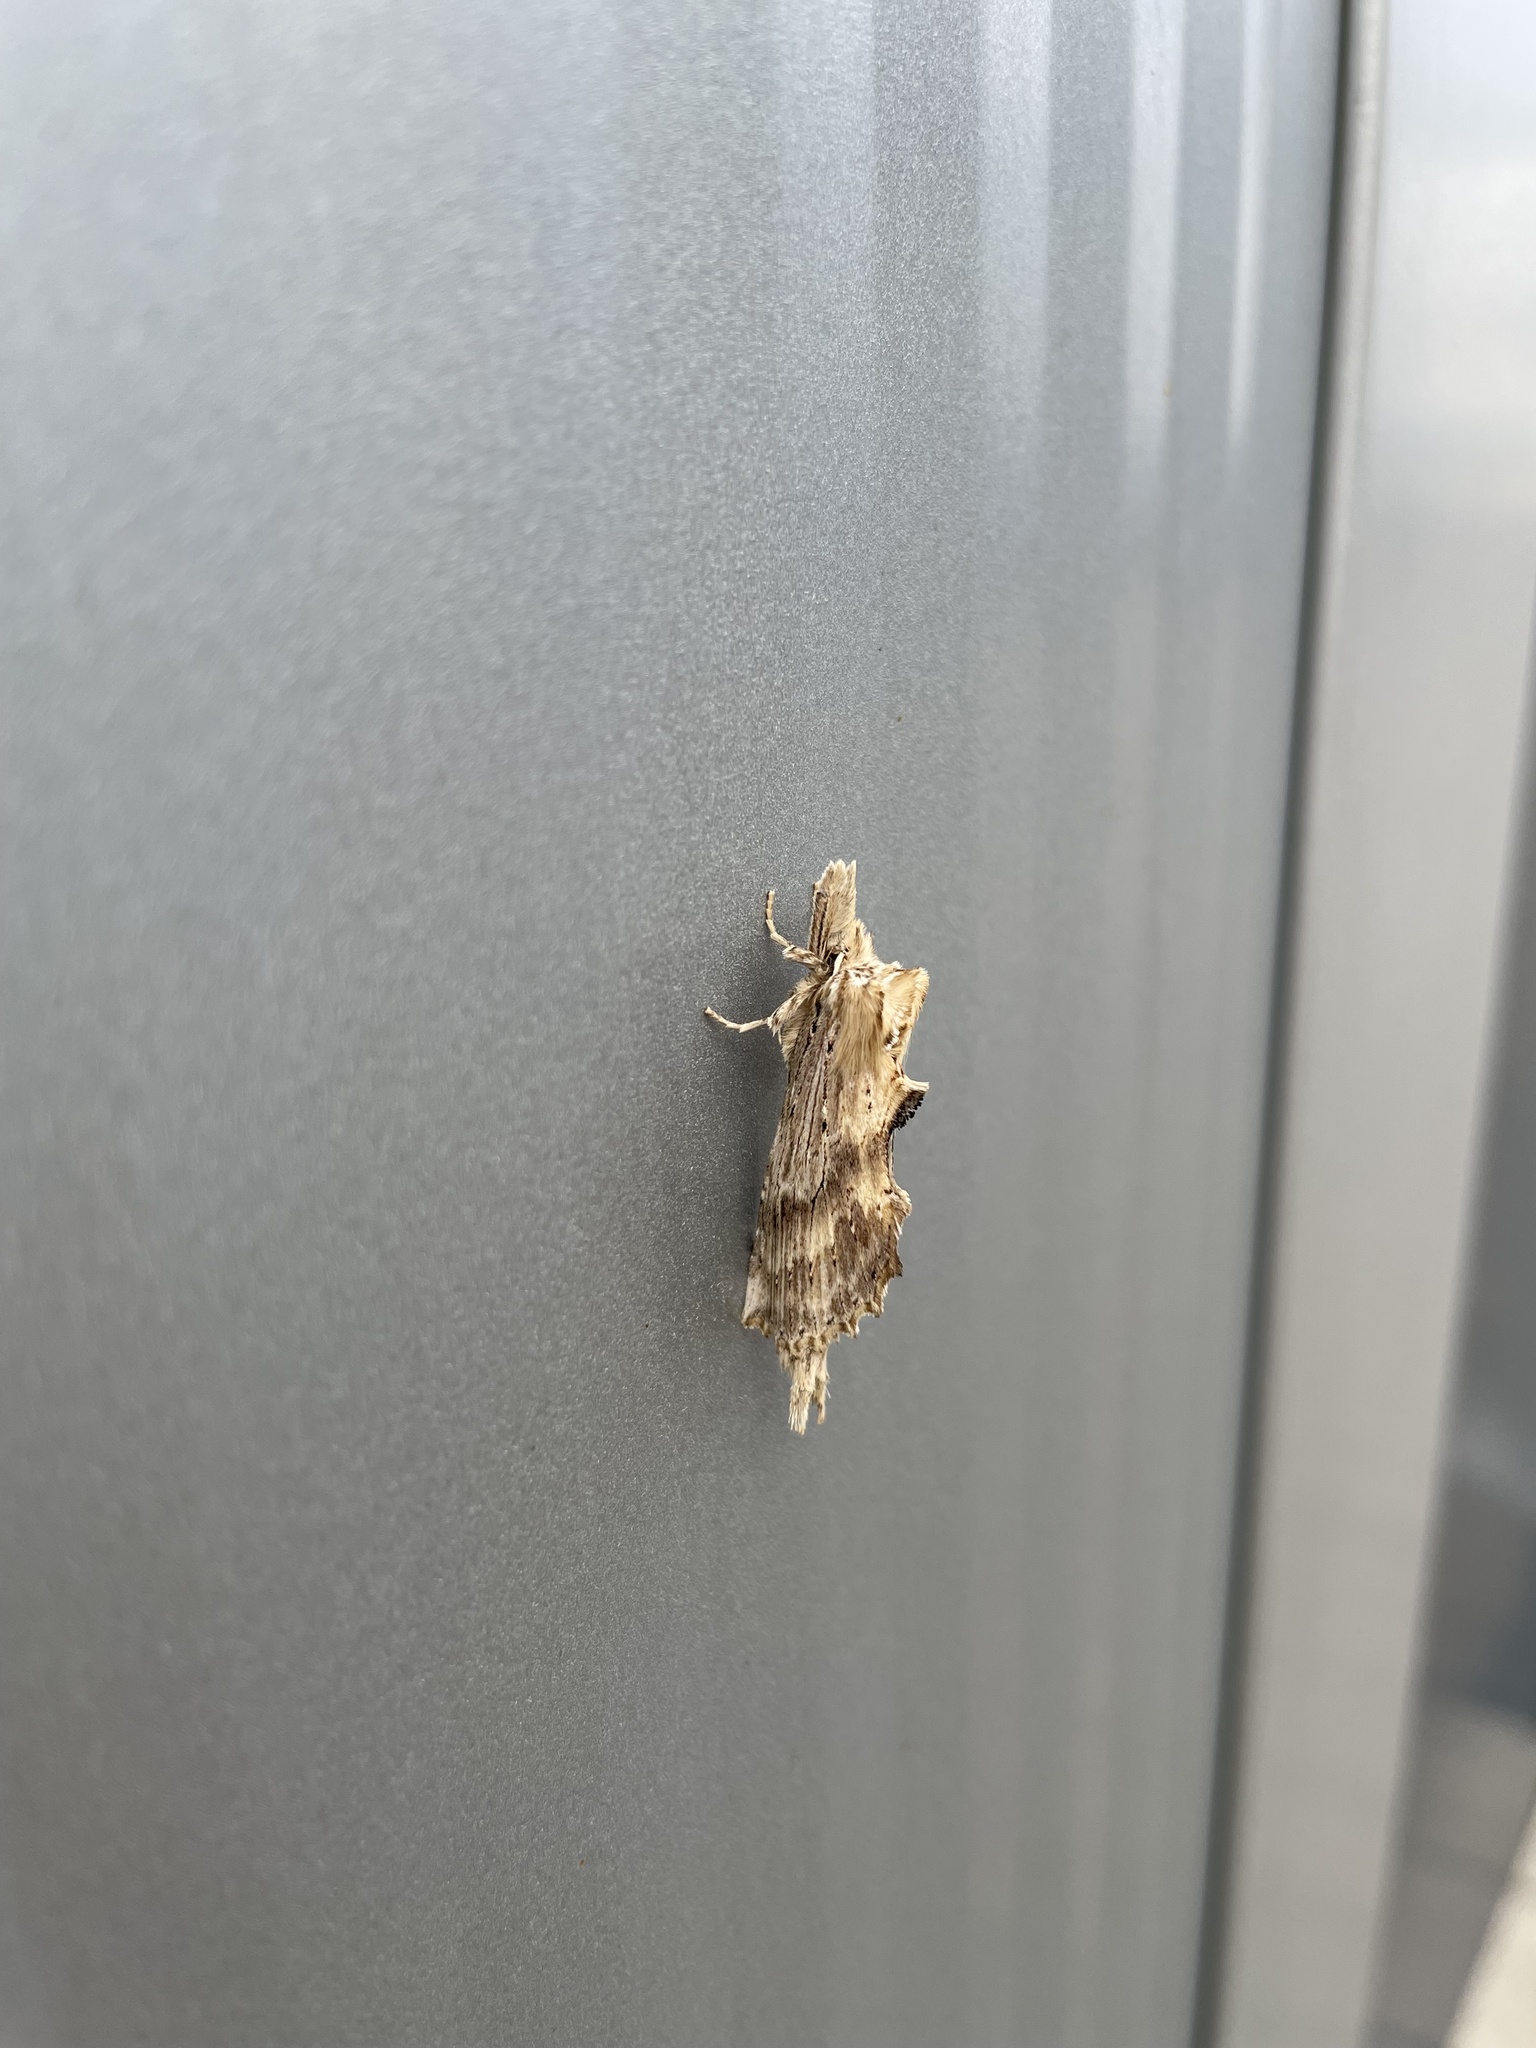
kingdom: Animalia
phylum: Arthropoda
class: Insecta
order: Lepidoptera
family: Notodontidae
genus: Pterostoma
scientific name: Pterostoma palpina
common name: Pale prominent
